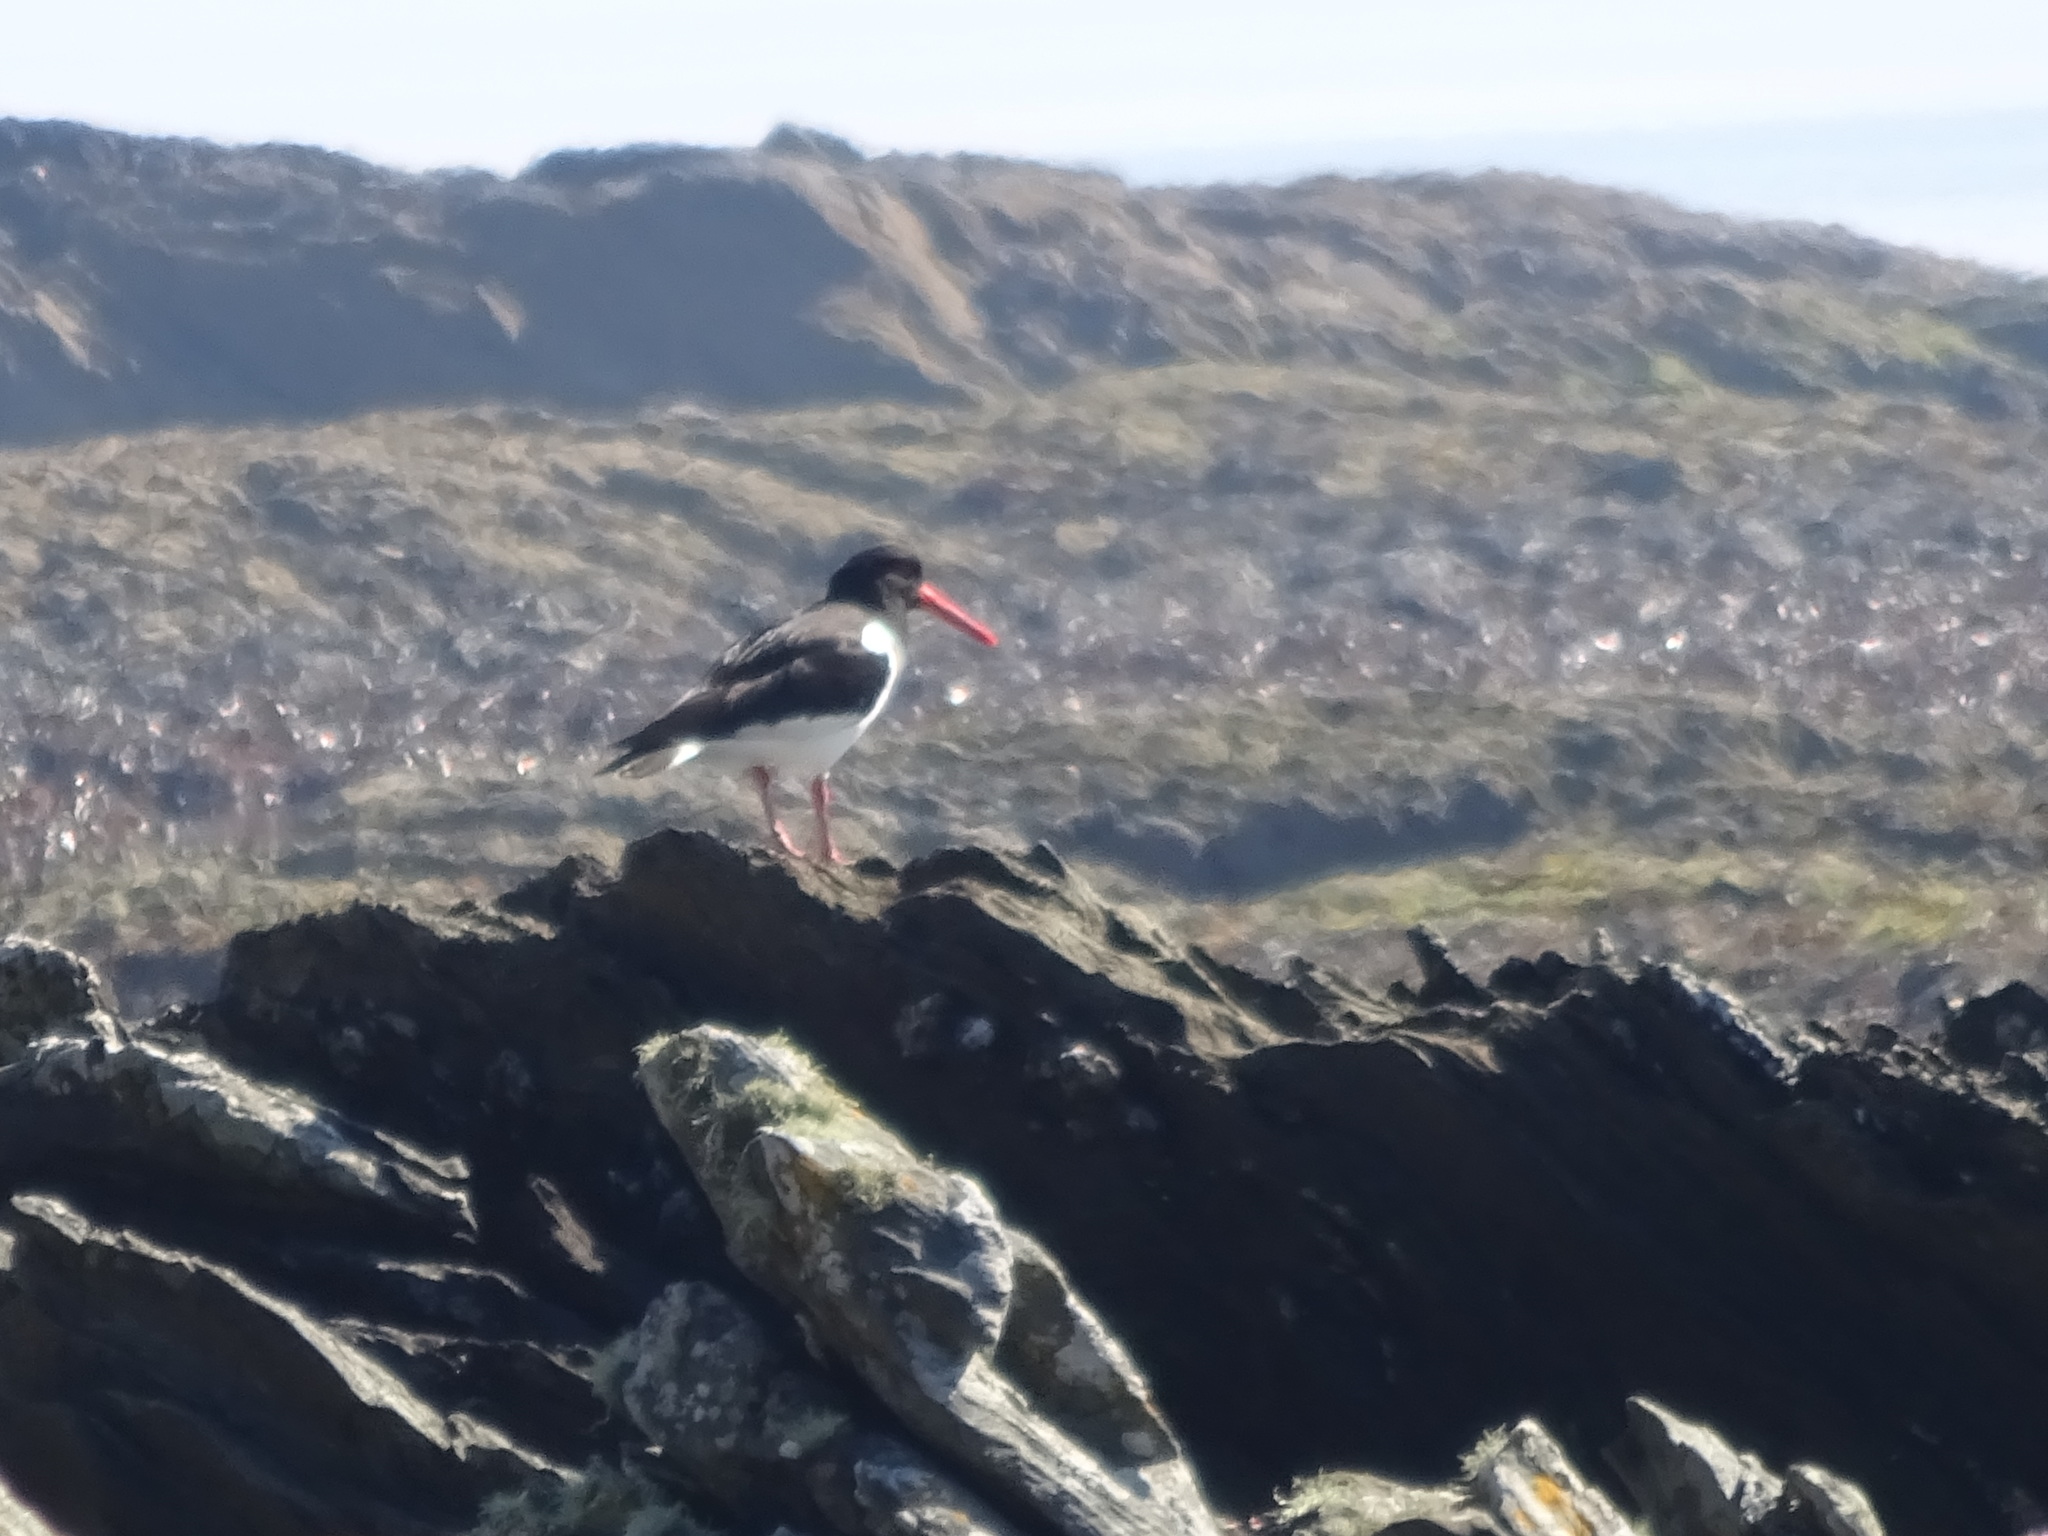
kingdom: Animalia
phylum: Chordata
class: Aves
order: Charadriiformes
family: Haematopodidae
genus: Haematopus
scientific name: Haematopus ostralegus
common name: Eurasian oystercatcher
